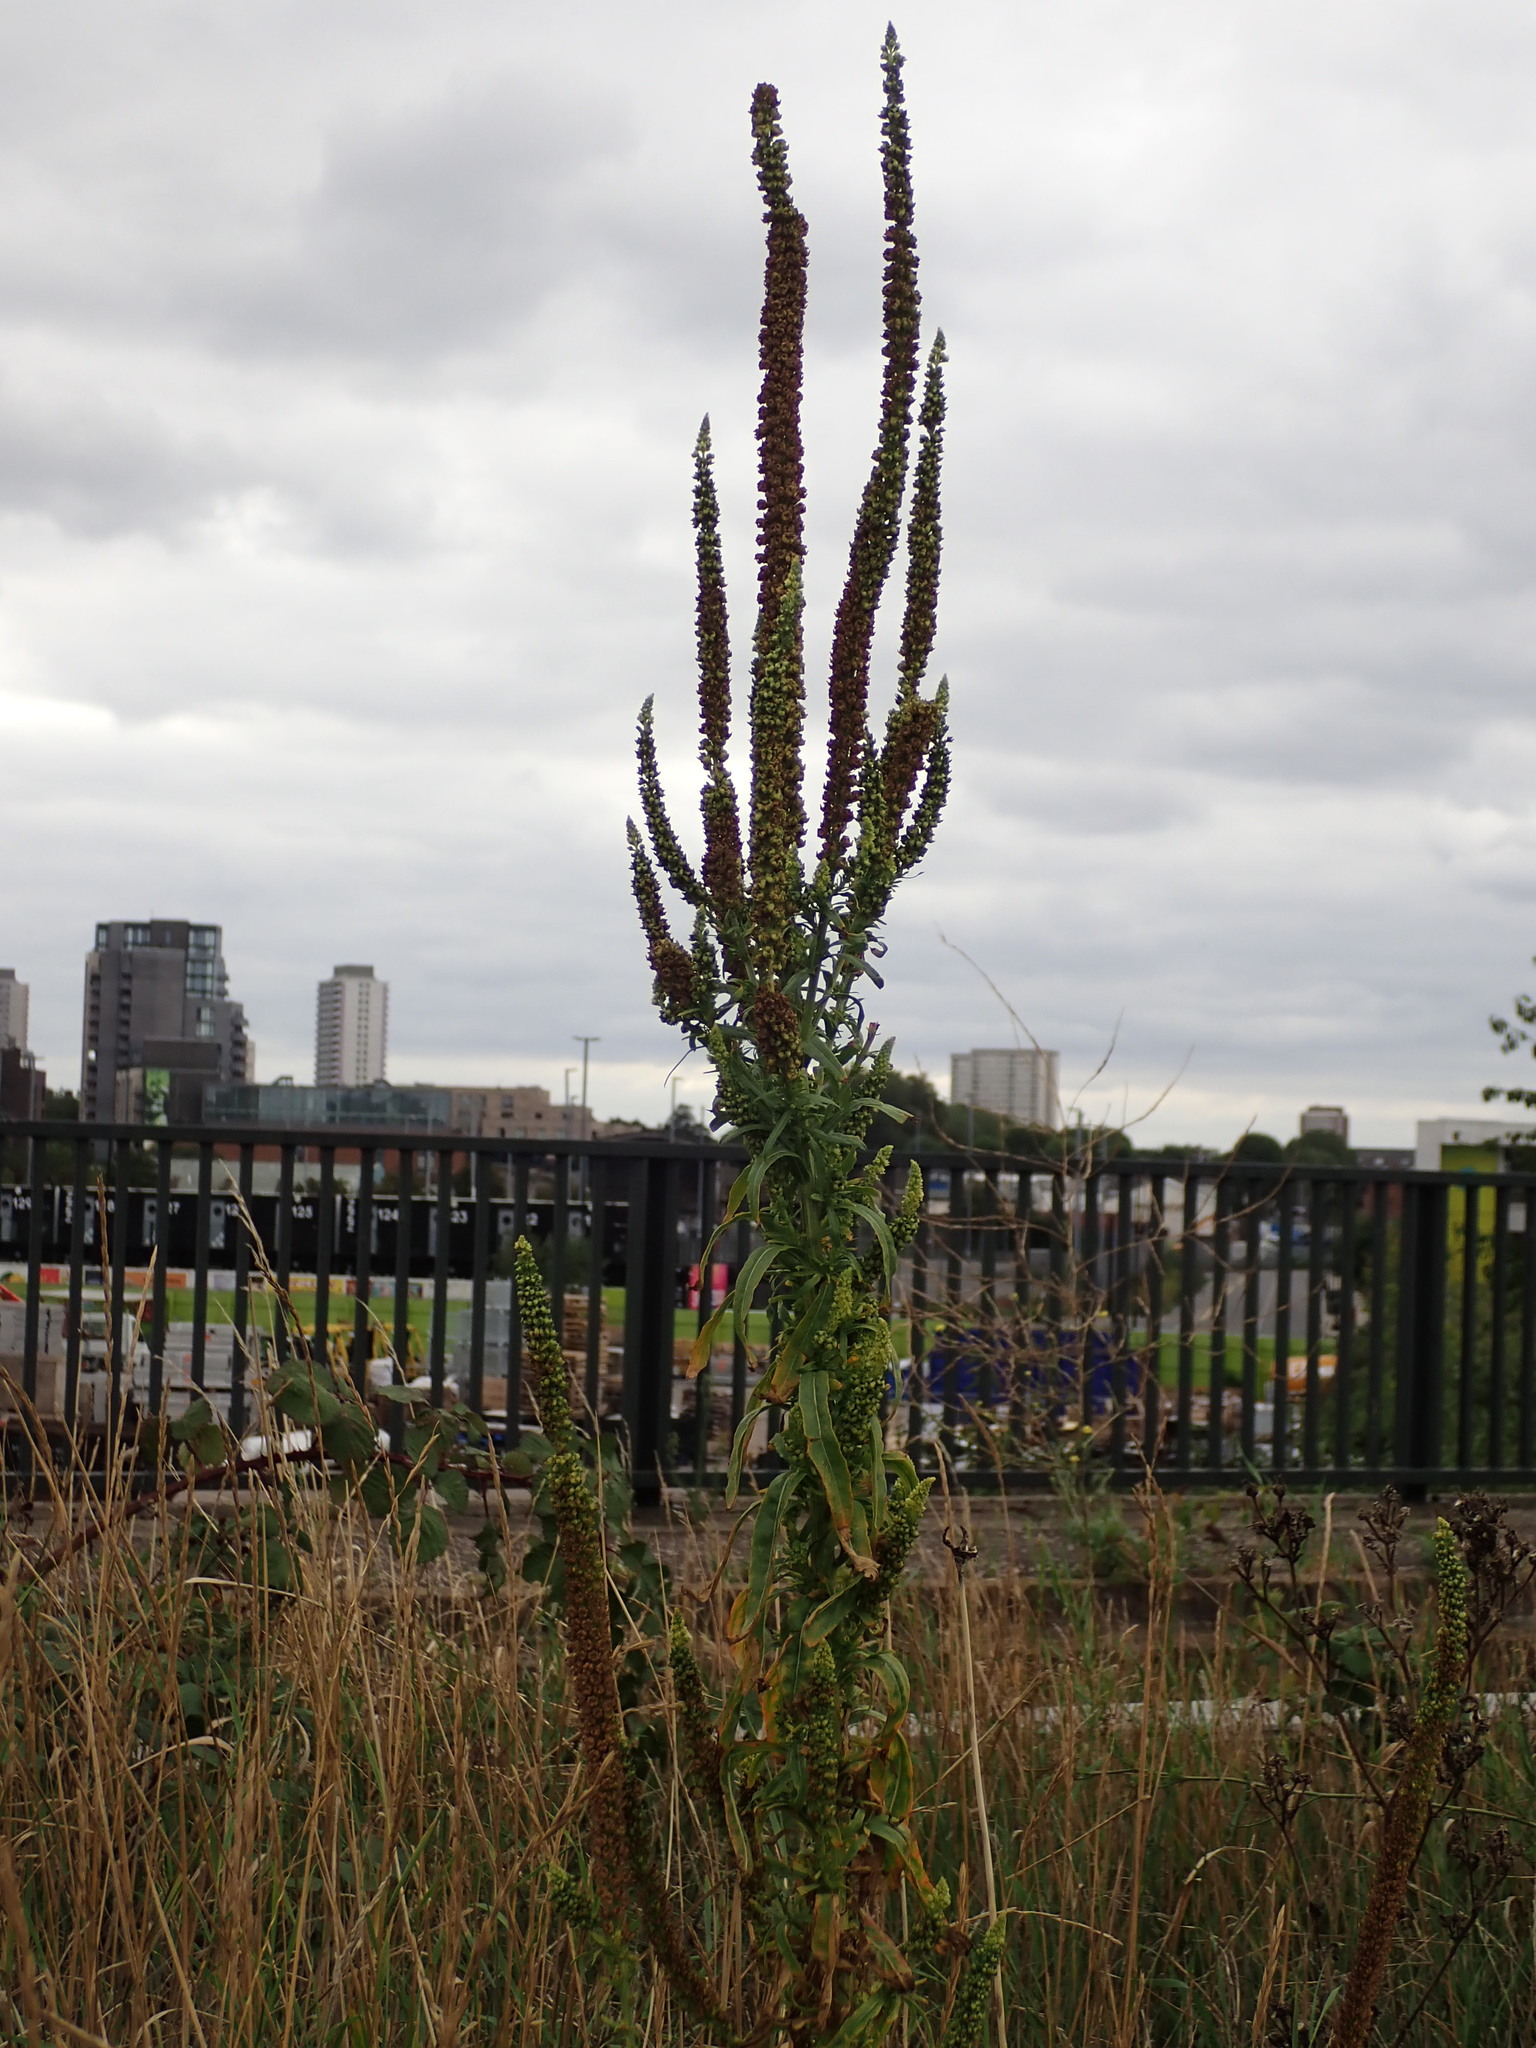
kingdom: Plantae
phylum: Tracheophyta
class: Magnoliopsida
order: Brassicales
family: Resedaceae
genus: Reseda
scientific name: Reseda luteola
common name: Weld
